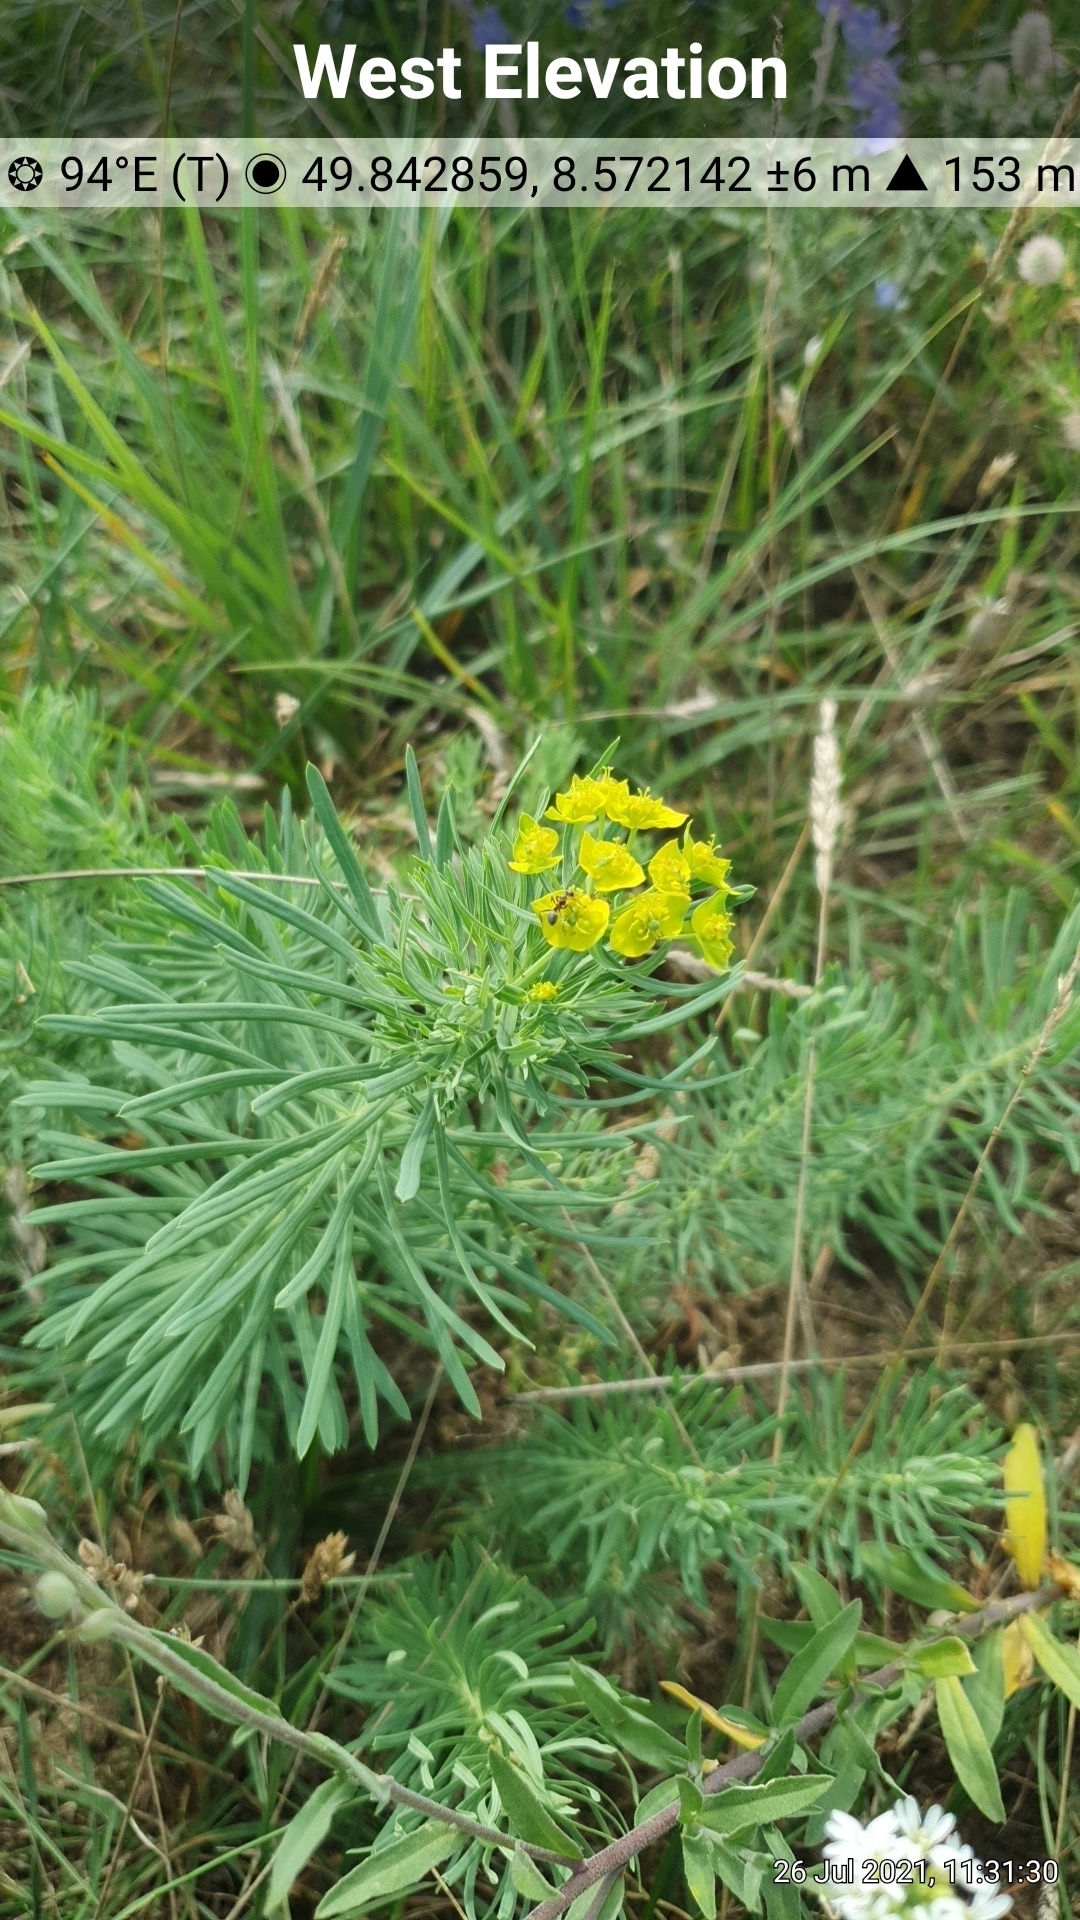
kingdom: Plantae
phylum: Tracheophyta
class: Magnoliopsida
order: Malpighiales
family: Euphorbiaceae
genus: Euphorbia
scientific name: Euphorbia cyparissias
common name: Cypress spurge
